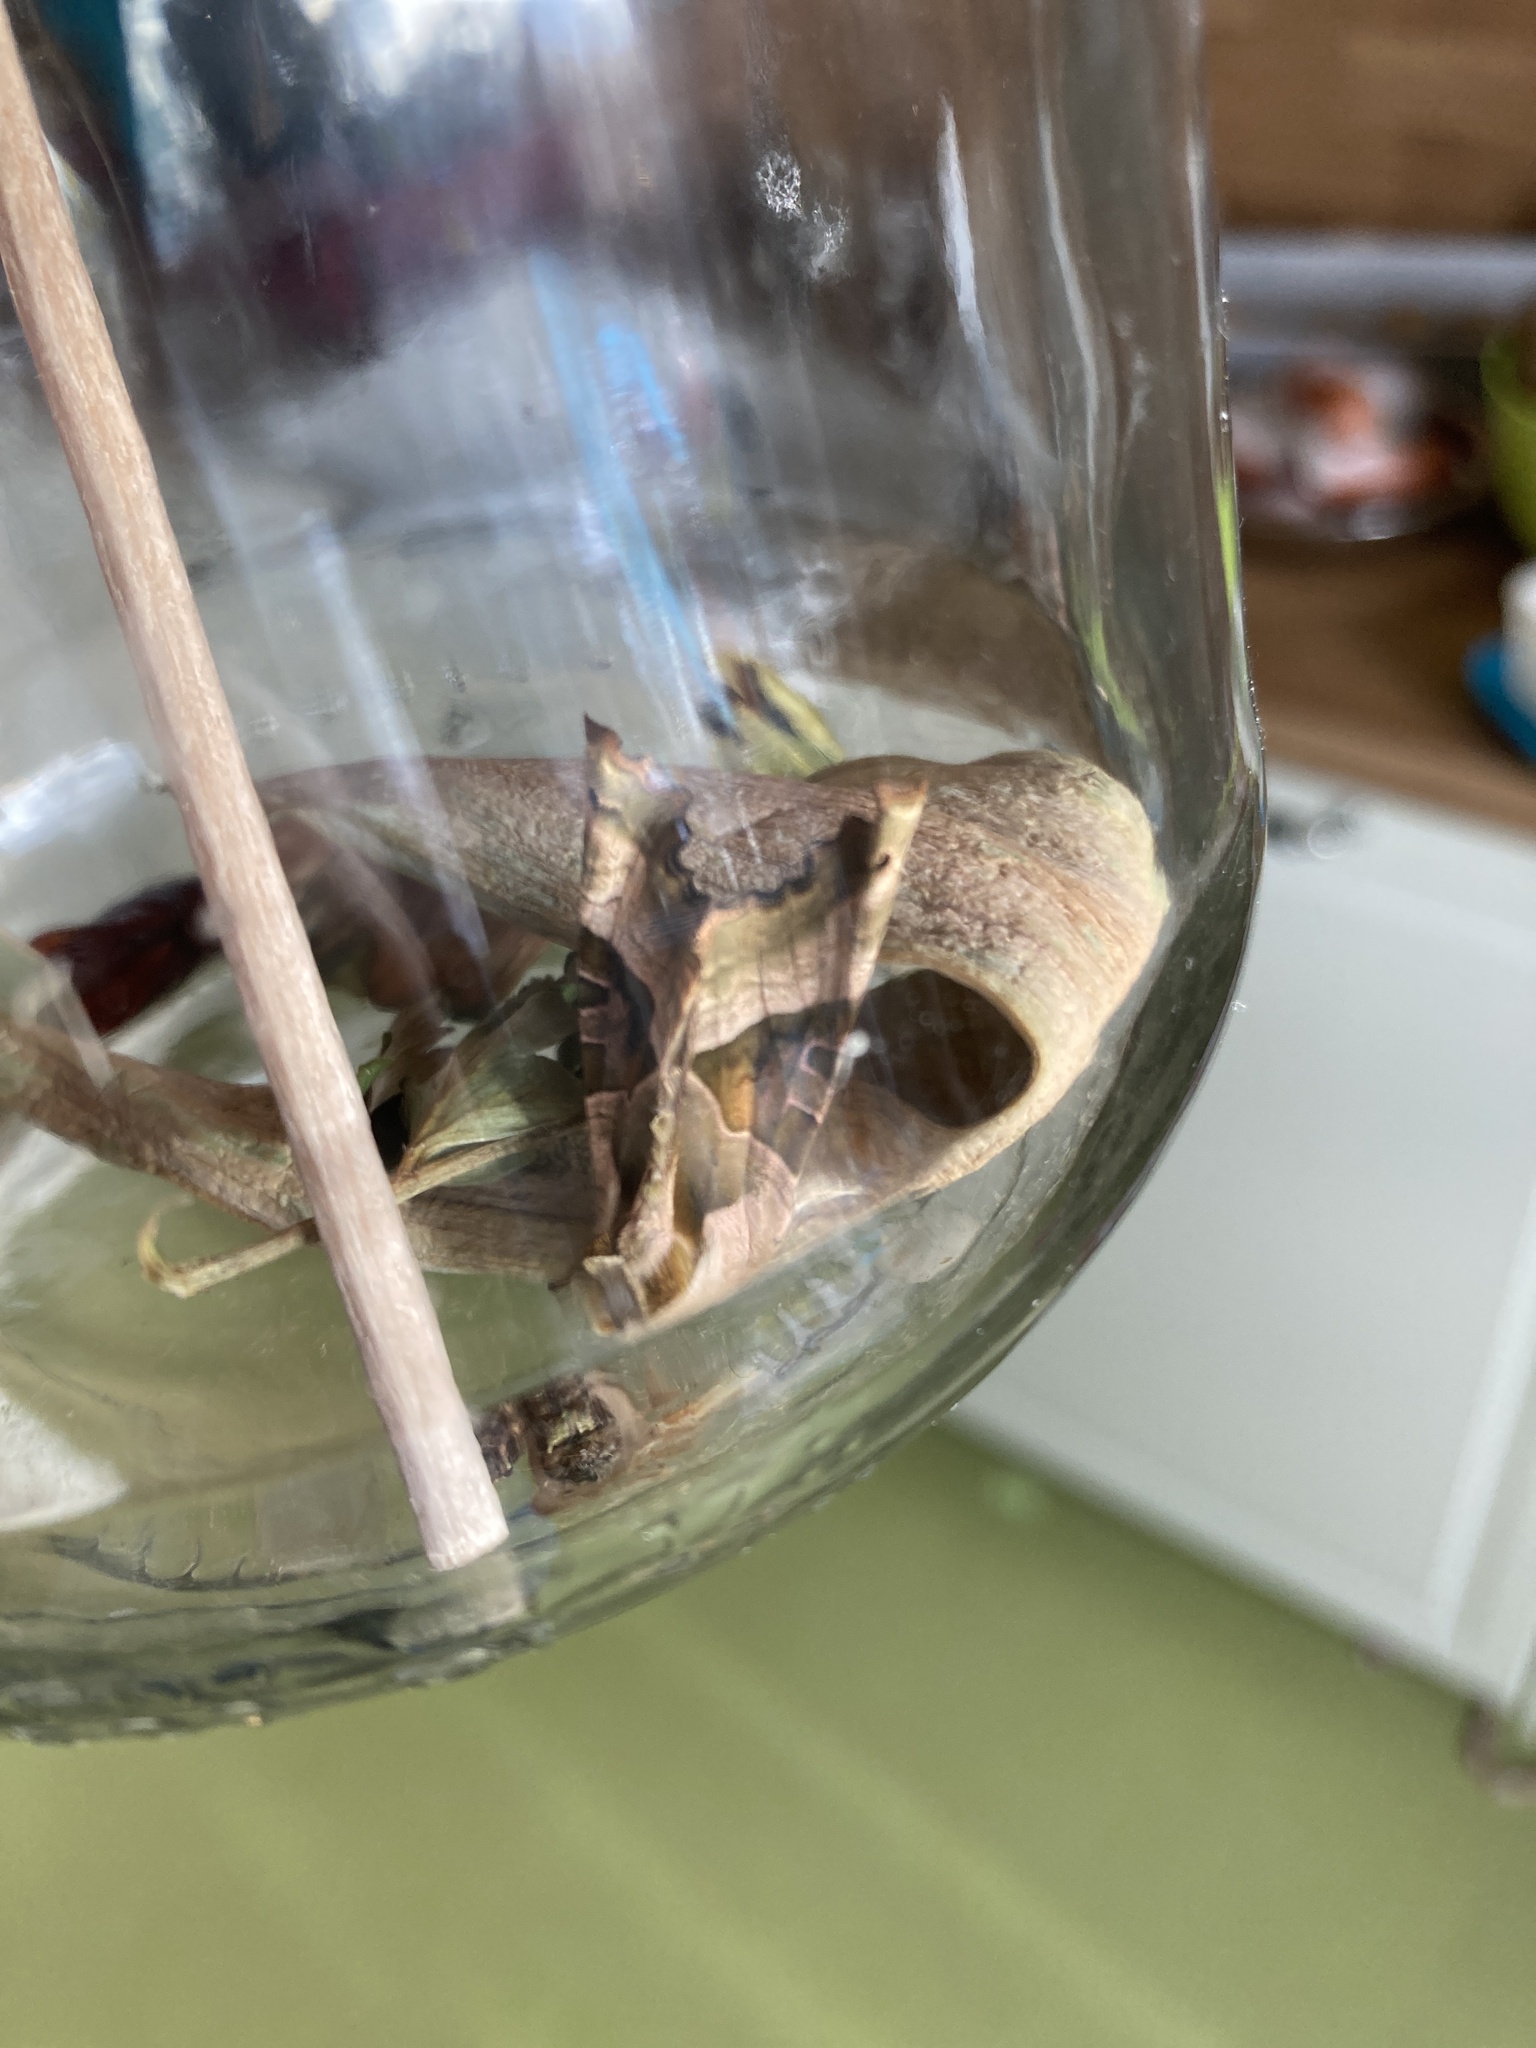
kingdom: Animalia
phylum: Arthropoda
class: Insecta
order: Lepidoptera
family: Noctuidae
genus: Phlogophora
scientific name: Phlogophora meticulosa
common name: Angle shades
